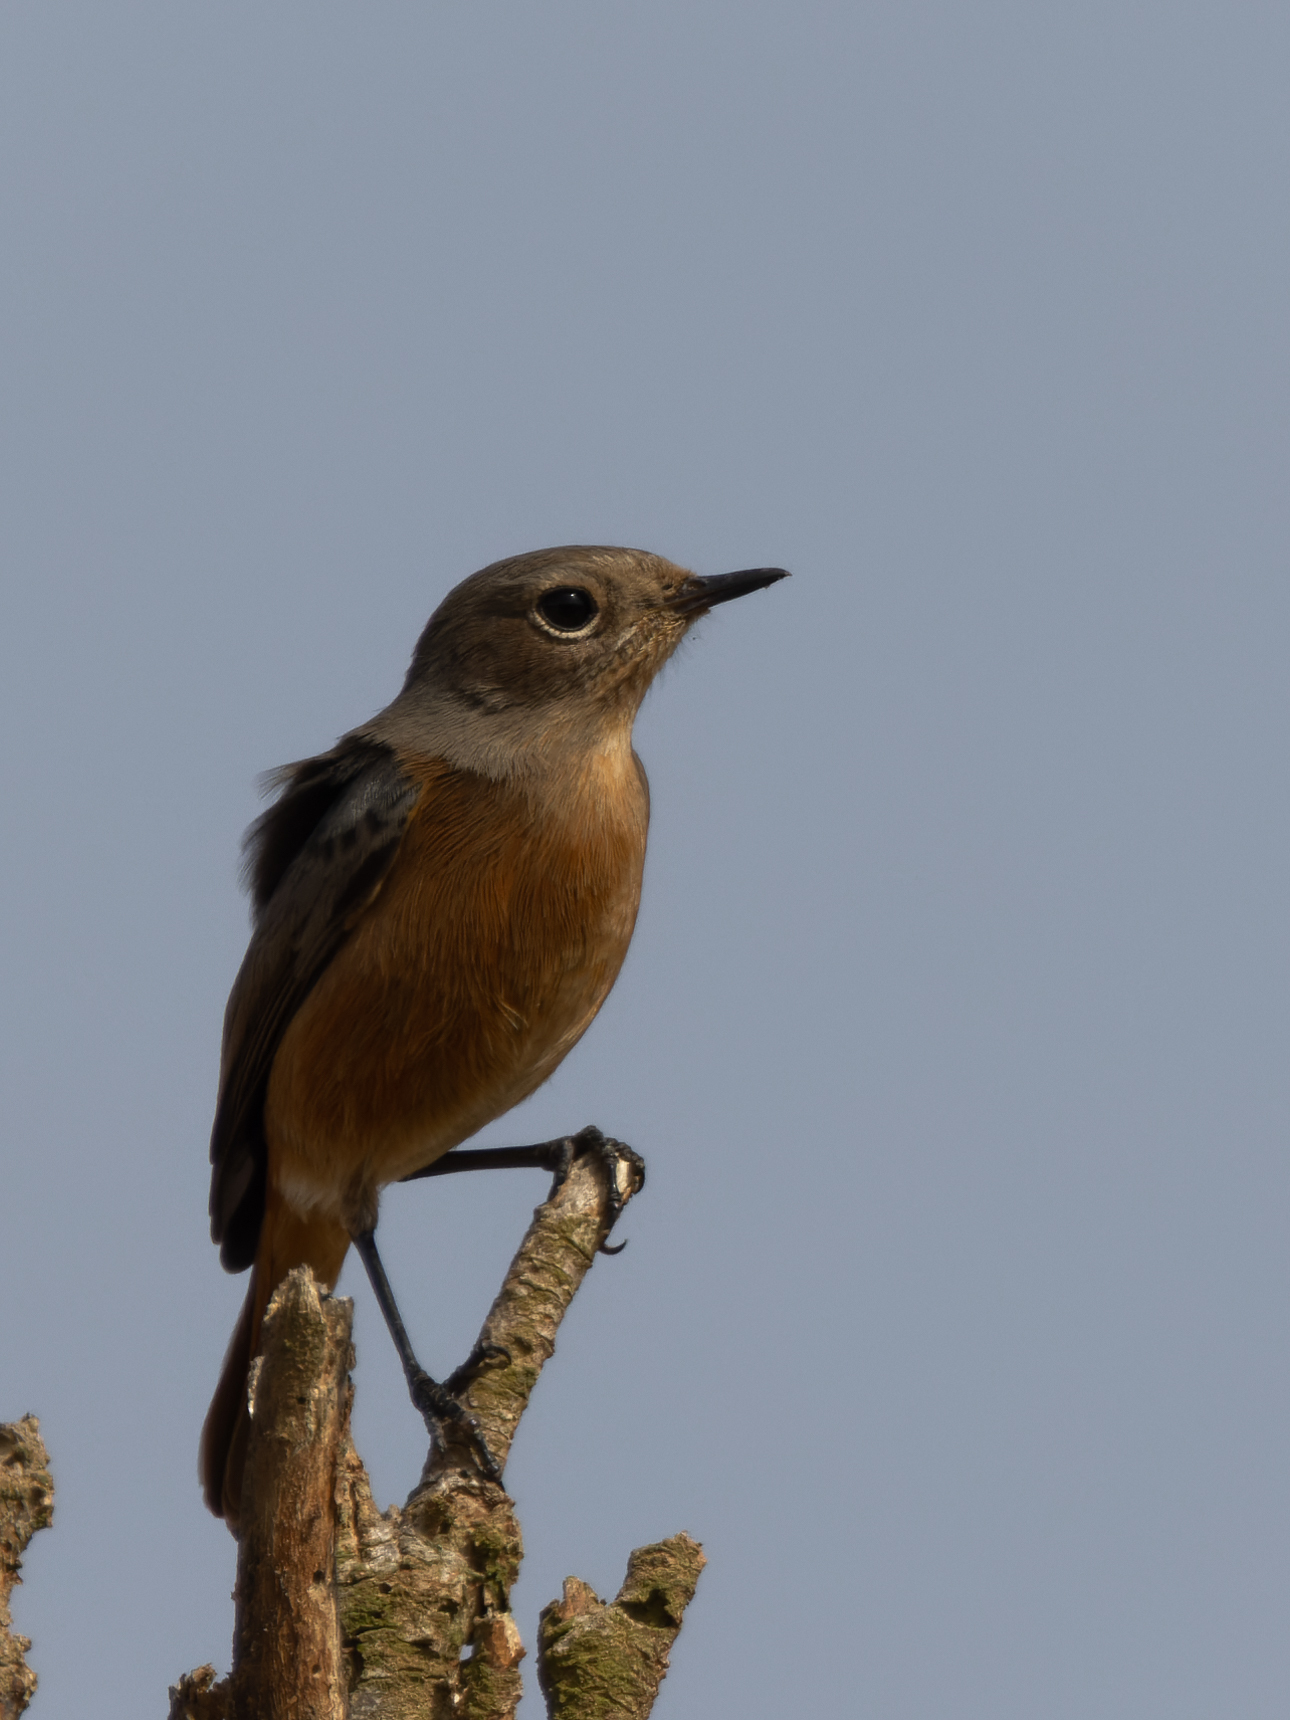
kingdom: Animalia
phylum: Chordata
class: Aves
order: Passeriformes
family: Muscicapidae
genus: Phoenicurus
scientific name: Phoenicurus moussieri
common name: Moussier's redstart
